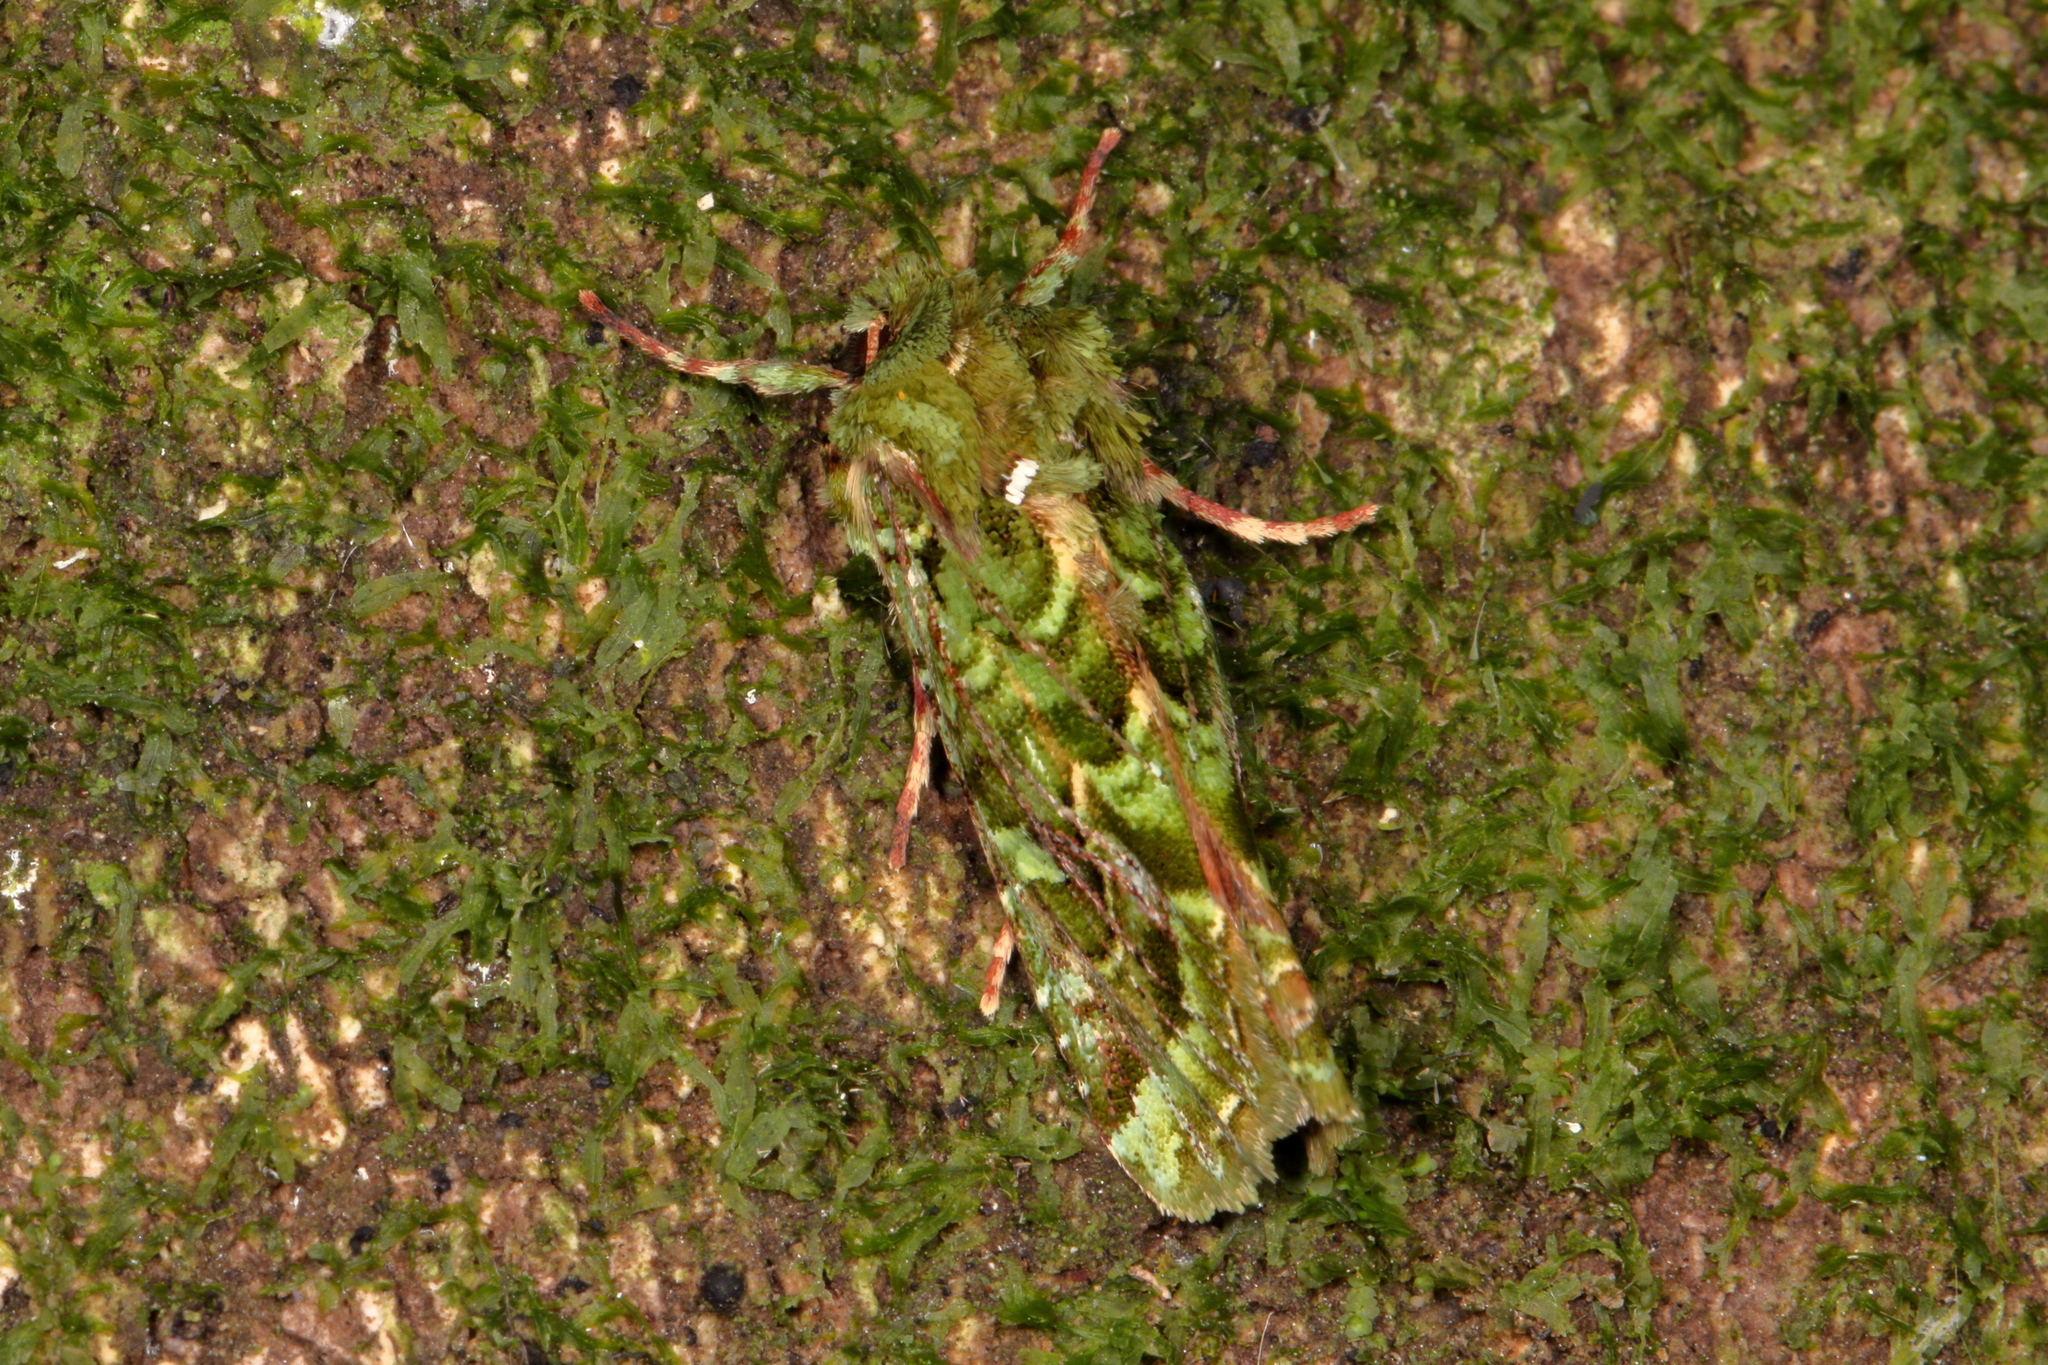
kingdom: Animalia
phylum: Arthropoda
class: Insecta
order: Lepidoptera
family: Noctuidae
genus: Feredayia
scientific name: Feredayia grammosa
